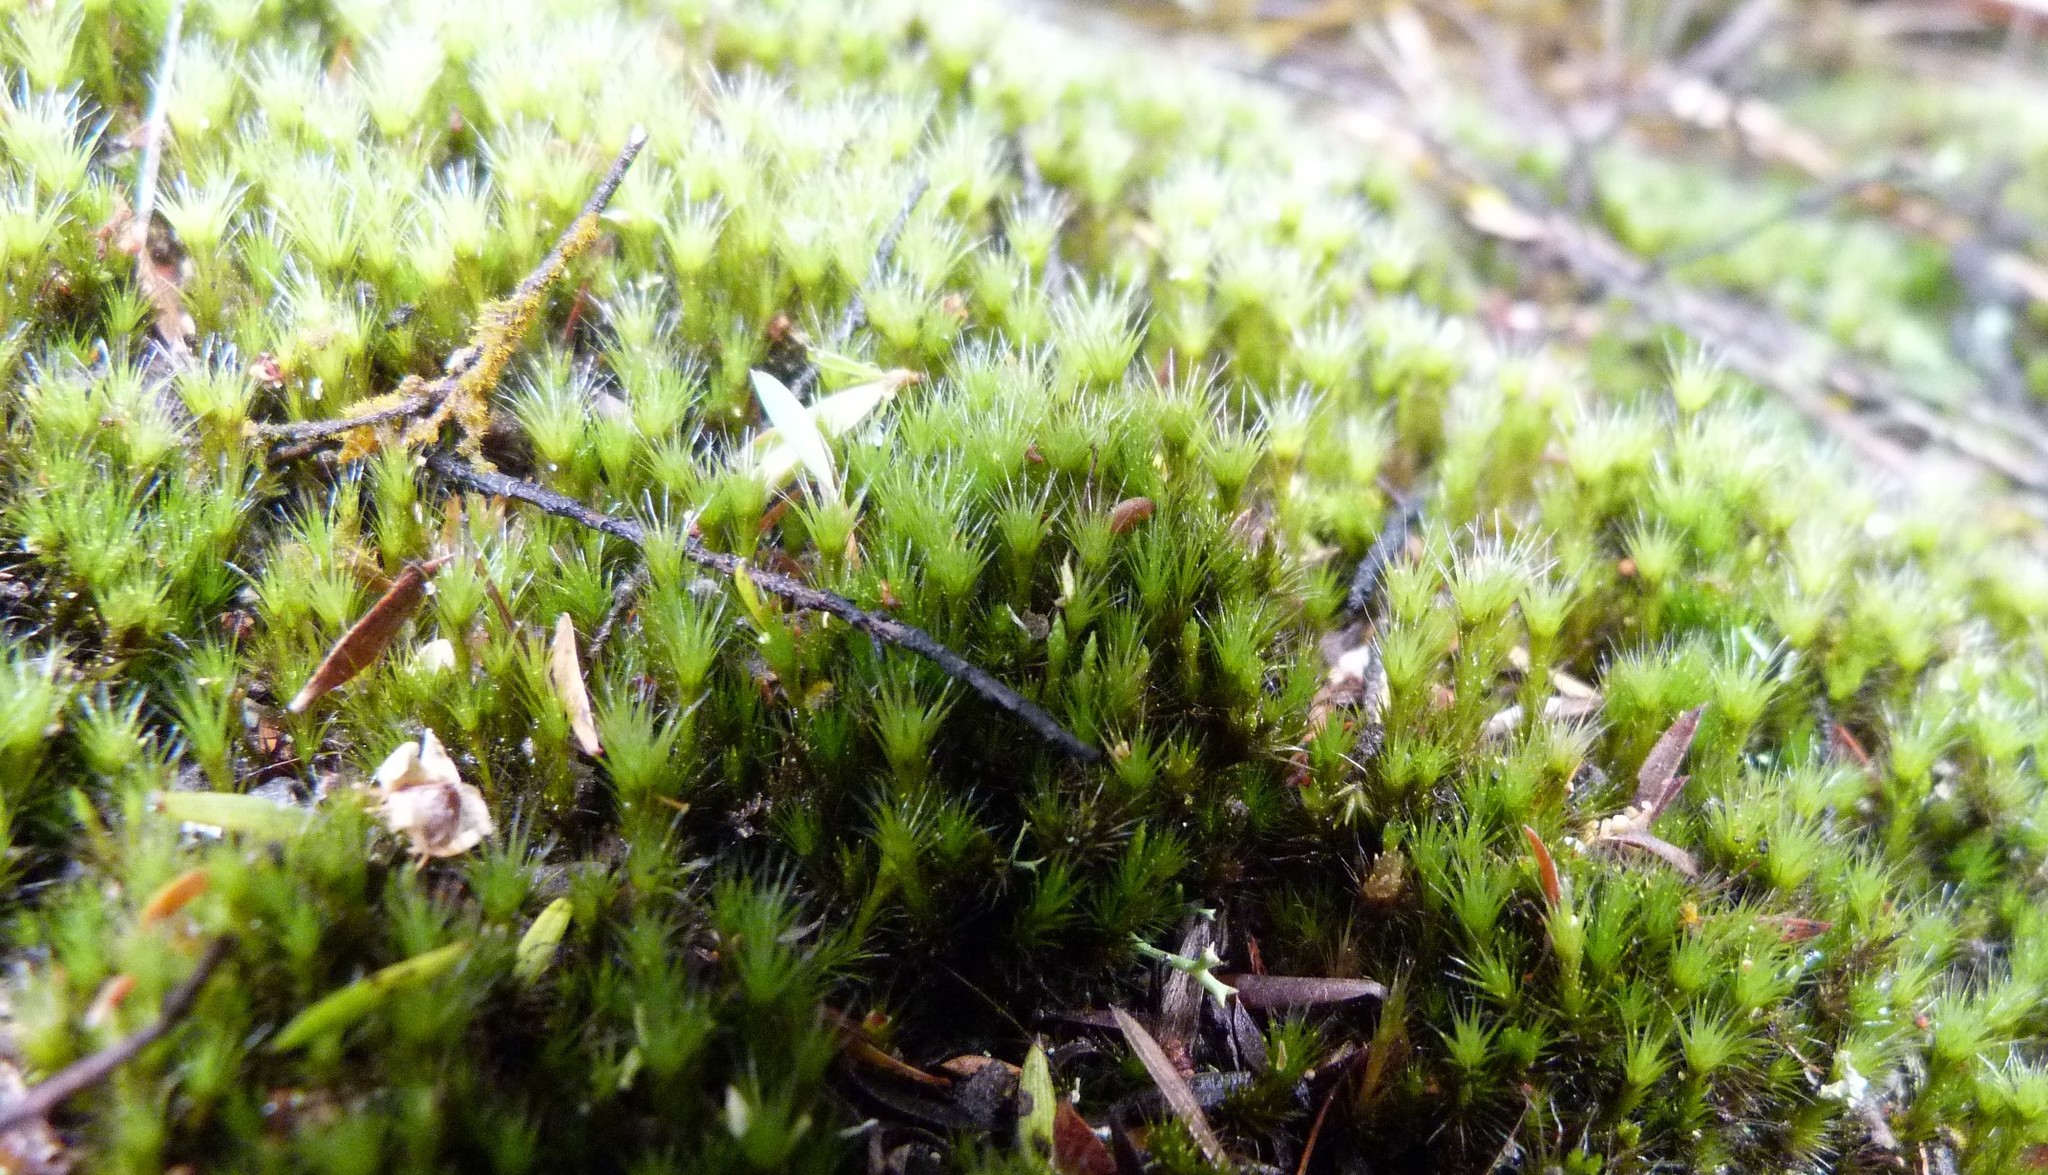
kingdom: Plantae
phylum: Bryophyta
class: Bryopsida
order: Dicranales
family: Leucobryaceae
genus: Campylopus
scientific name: Campylopus clavatus
